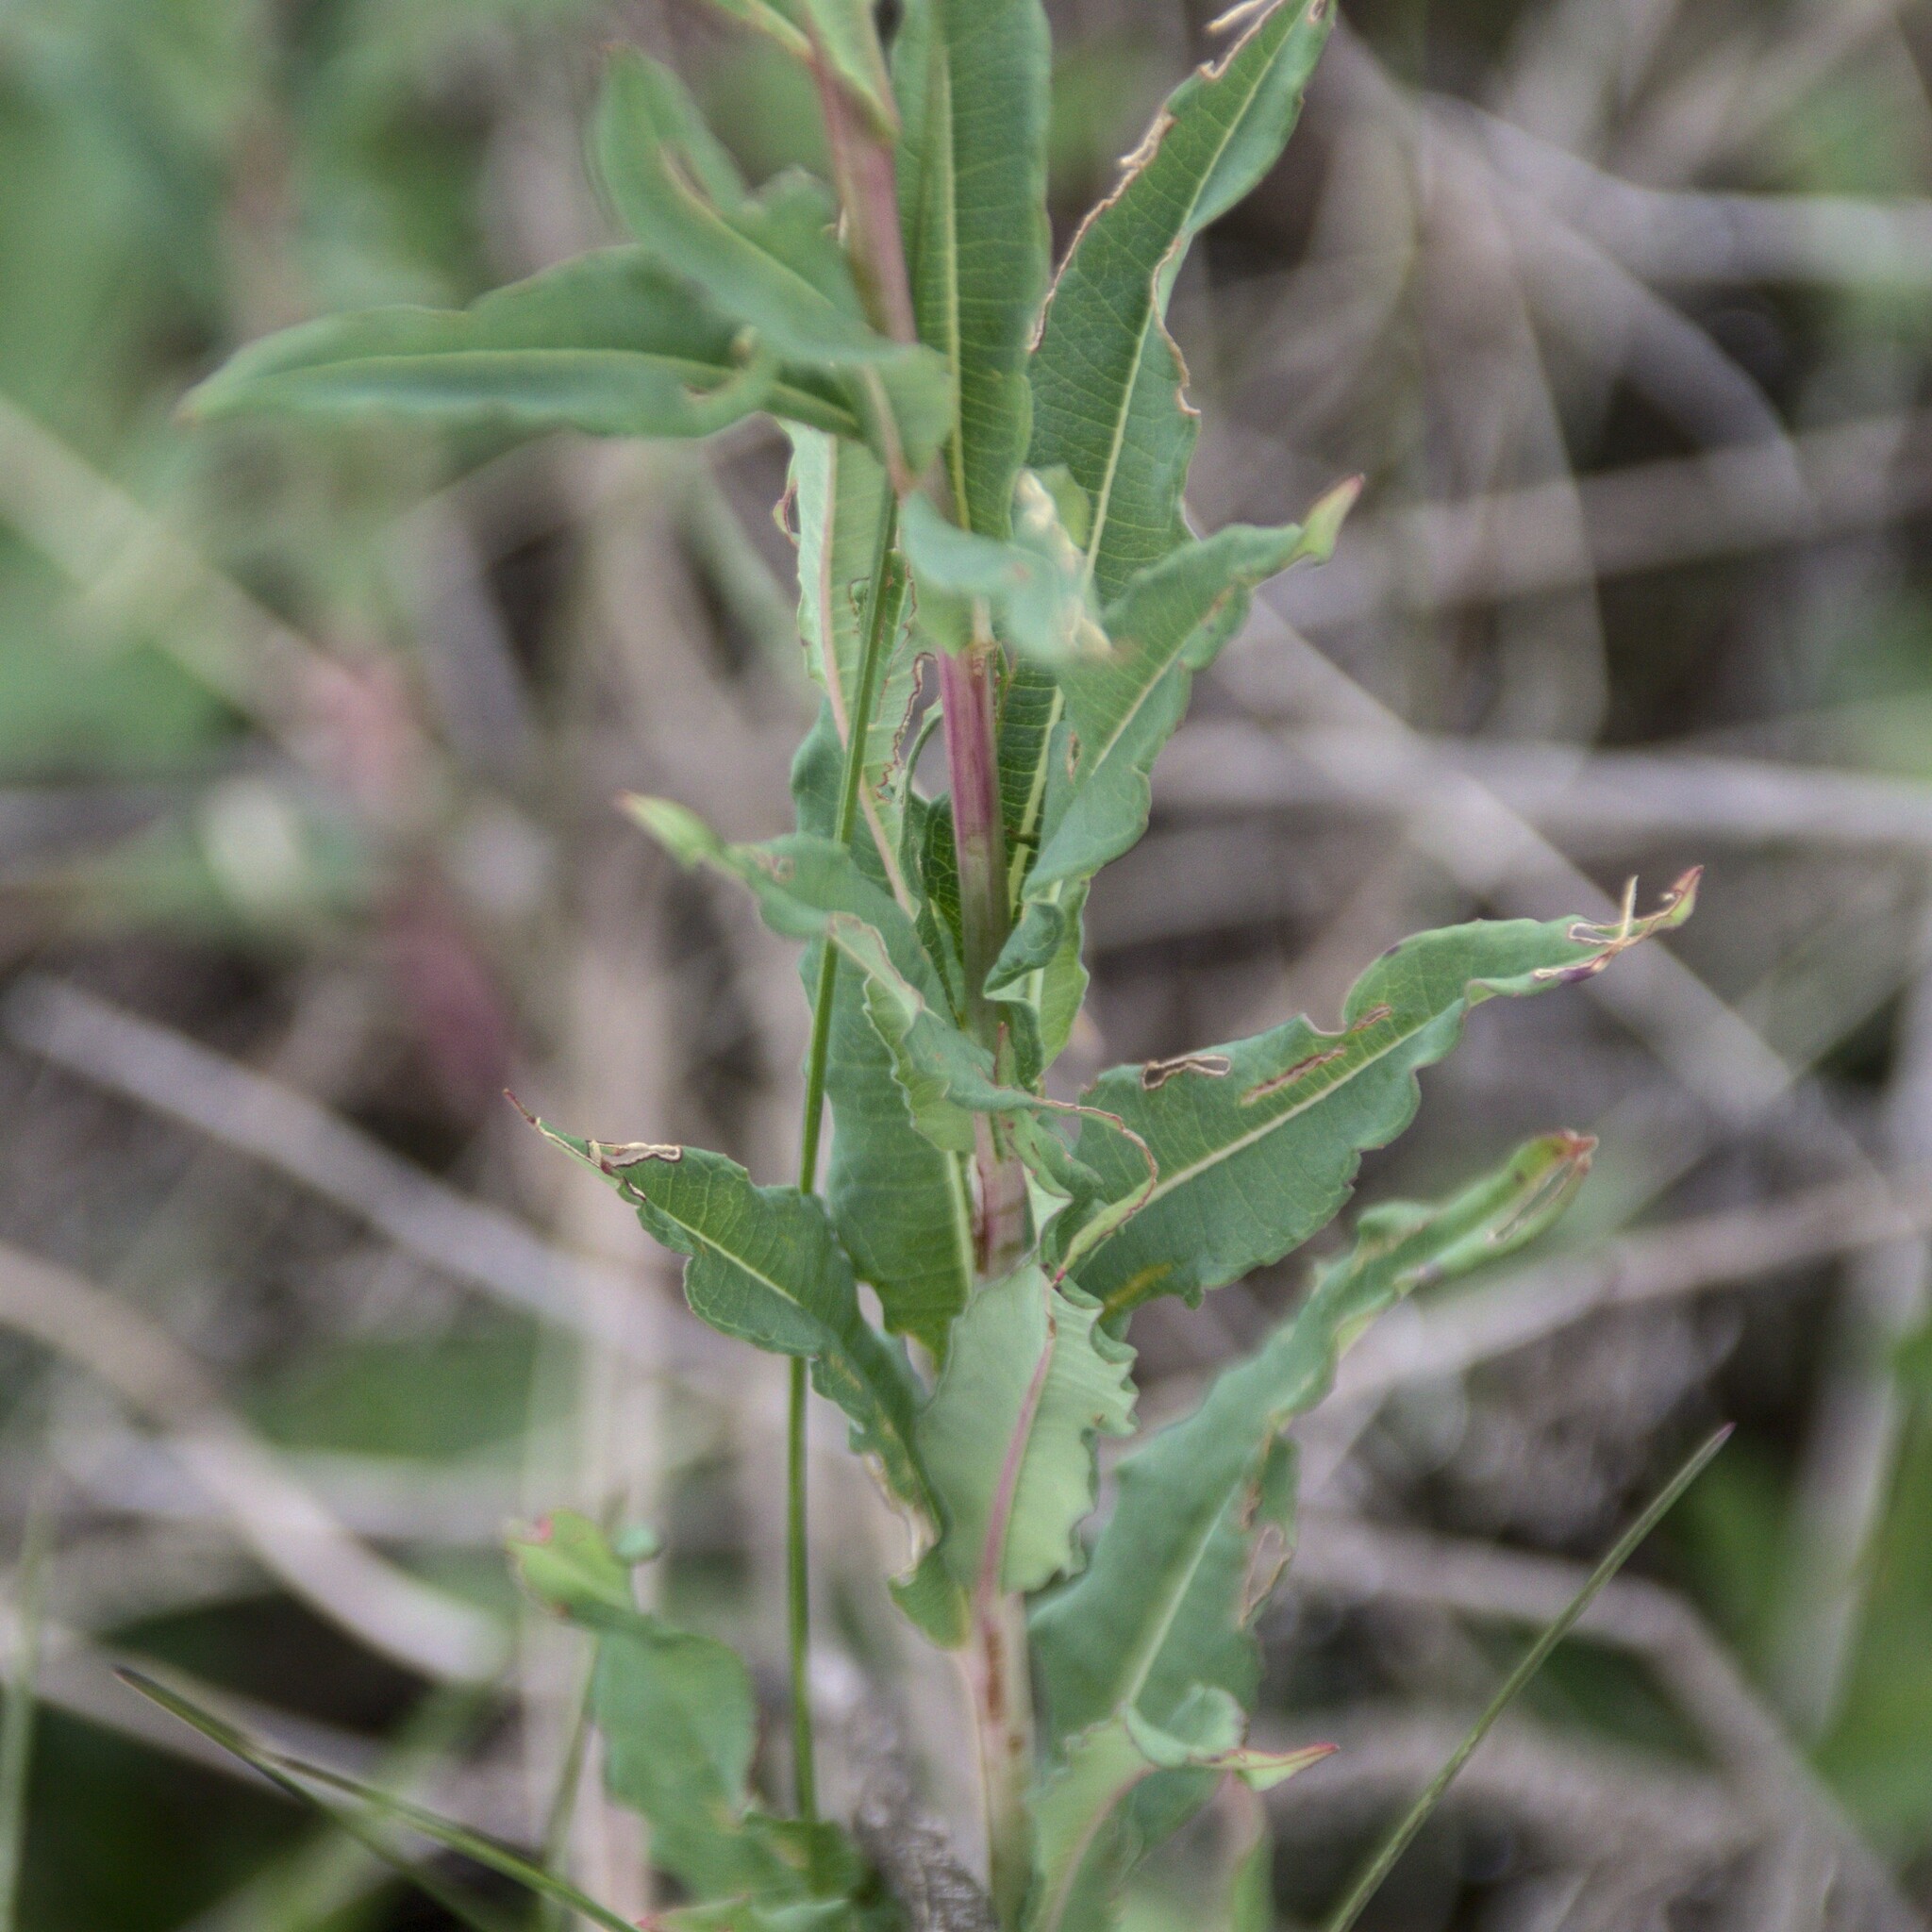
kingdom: Plantae
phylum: Tracheophyta
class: Magnoliopsida
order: Myrtales
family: Onagraceae
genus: Chamaenerion
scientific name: Chamaenerion angustifolium
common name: Fireweed
